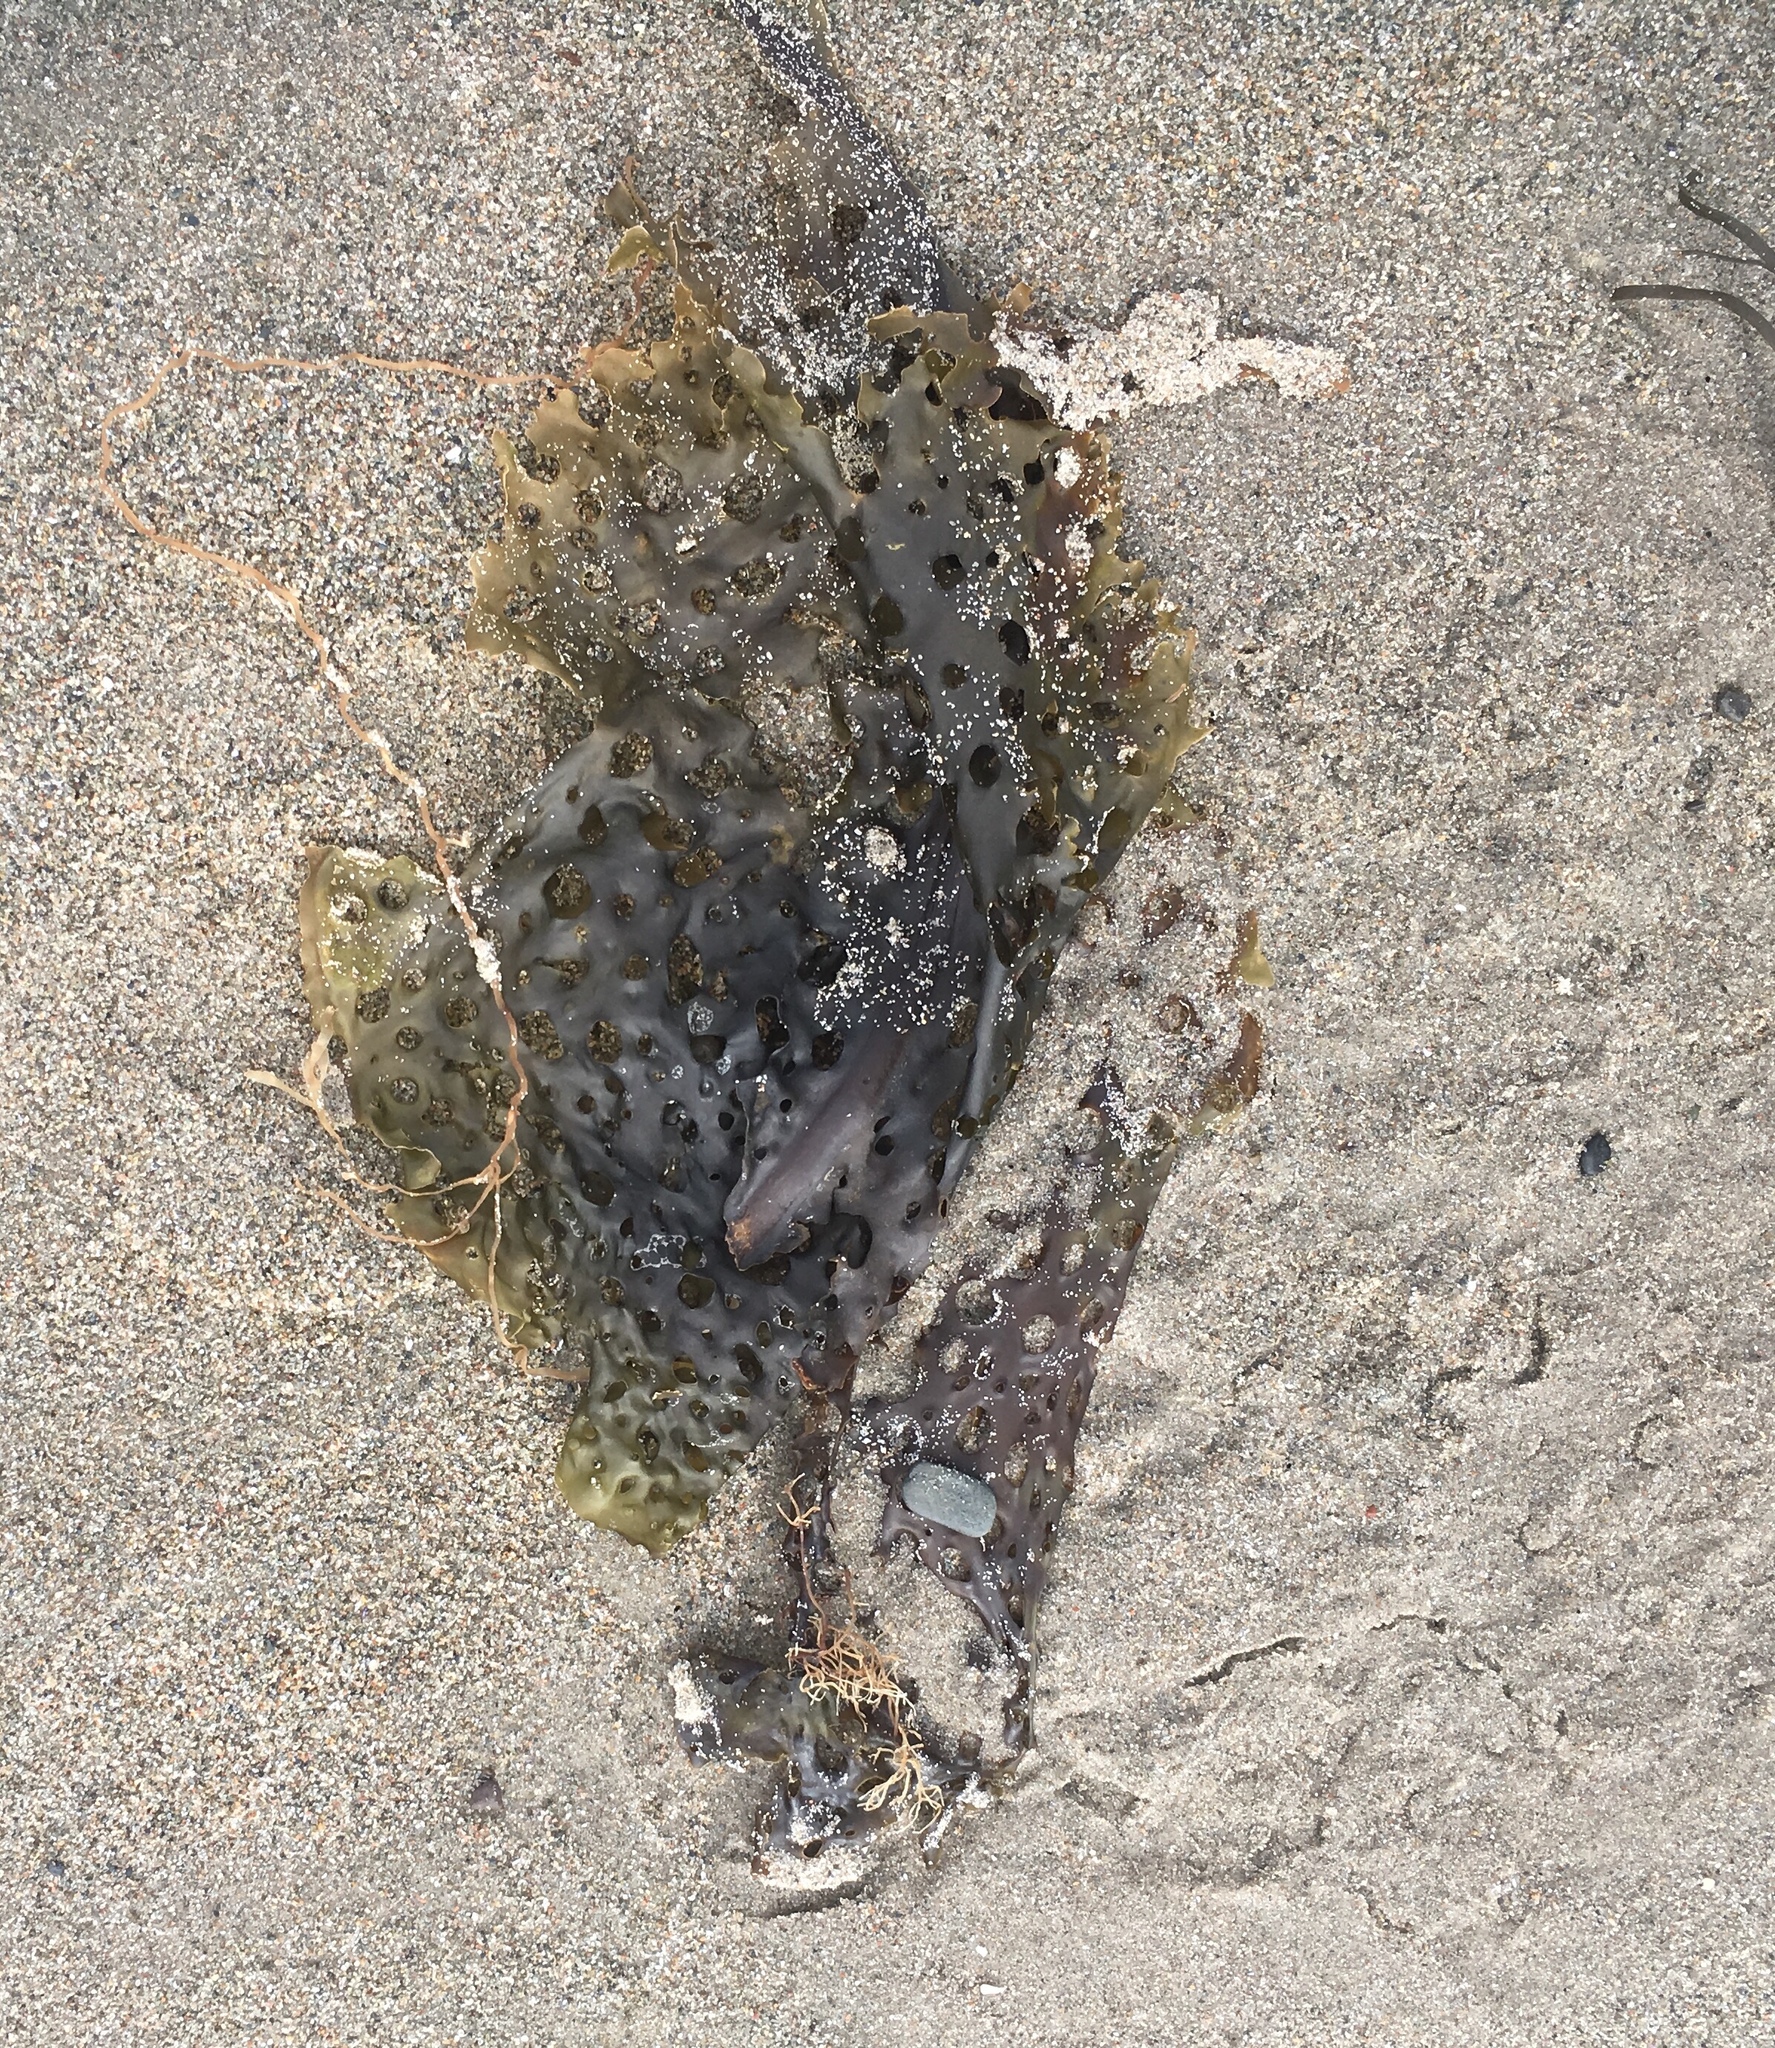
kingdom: Chromista
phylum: Ochrophyta
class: Phaeophyceae
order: Laminariales
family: Costariaceae
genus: Agarum
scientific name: Agarum clathratum
